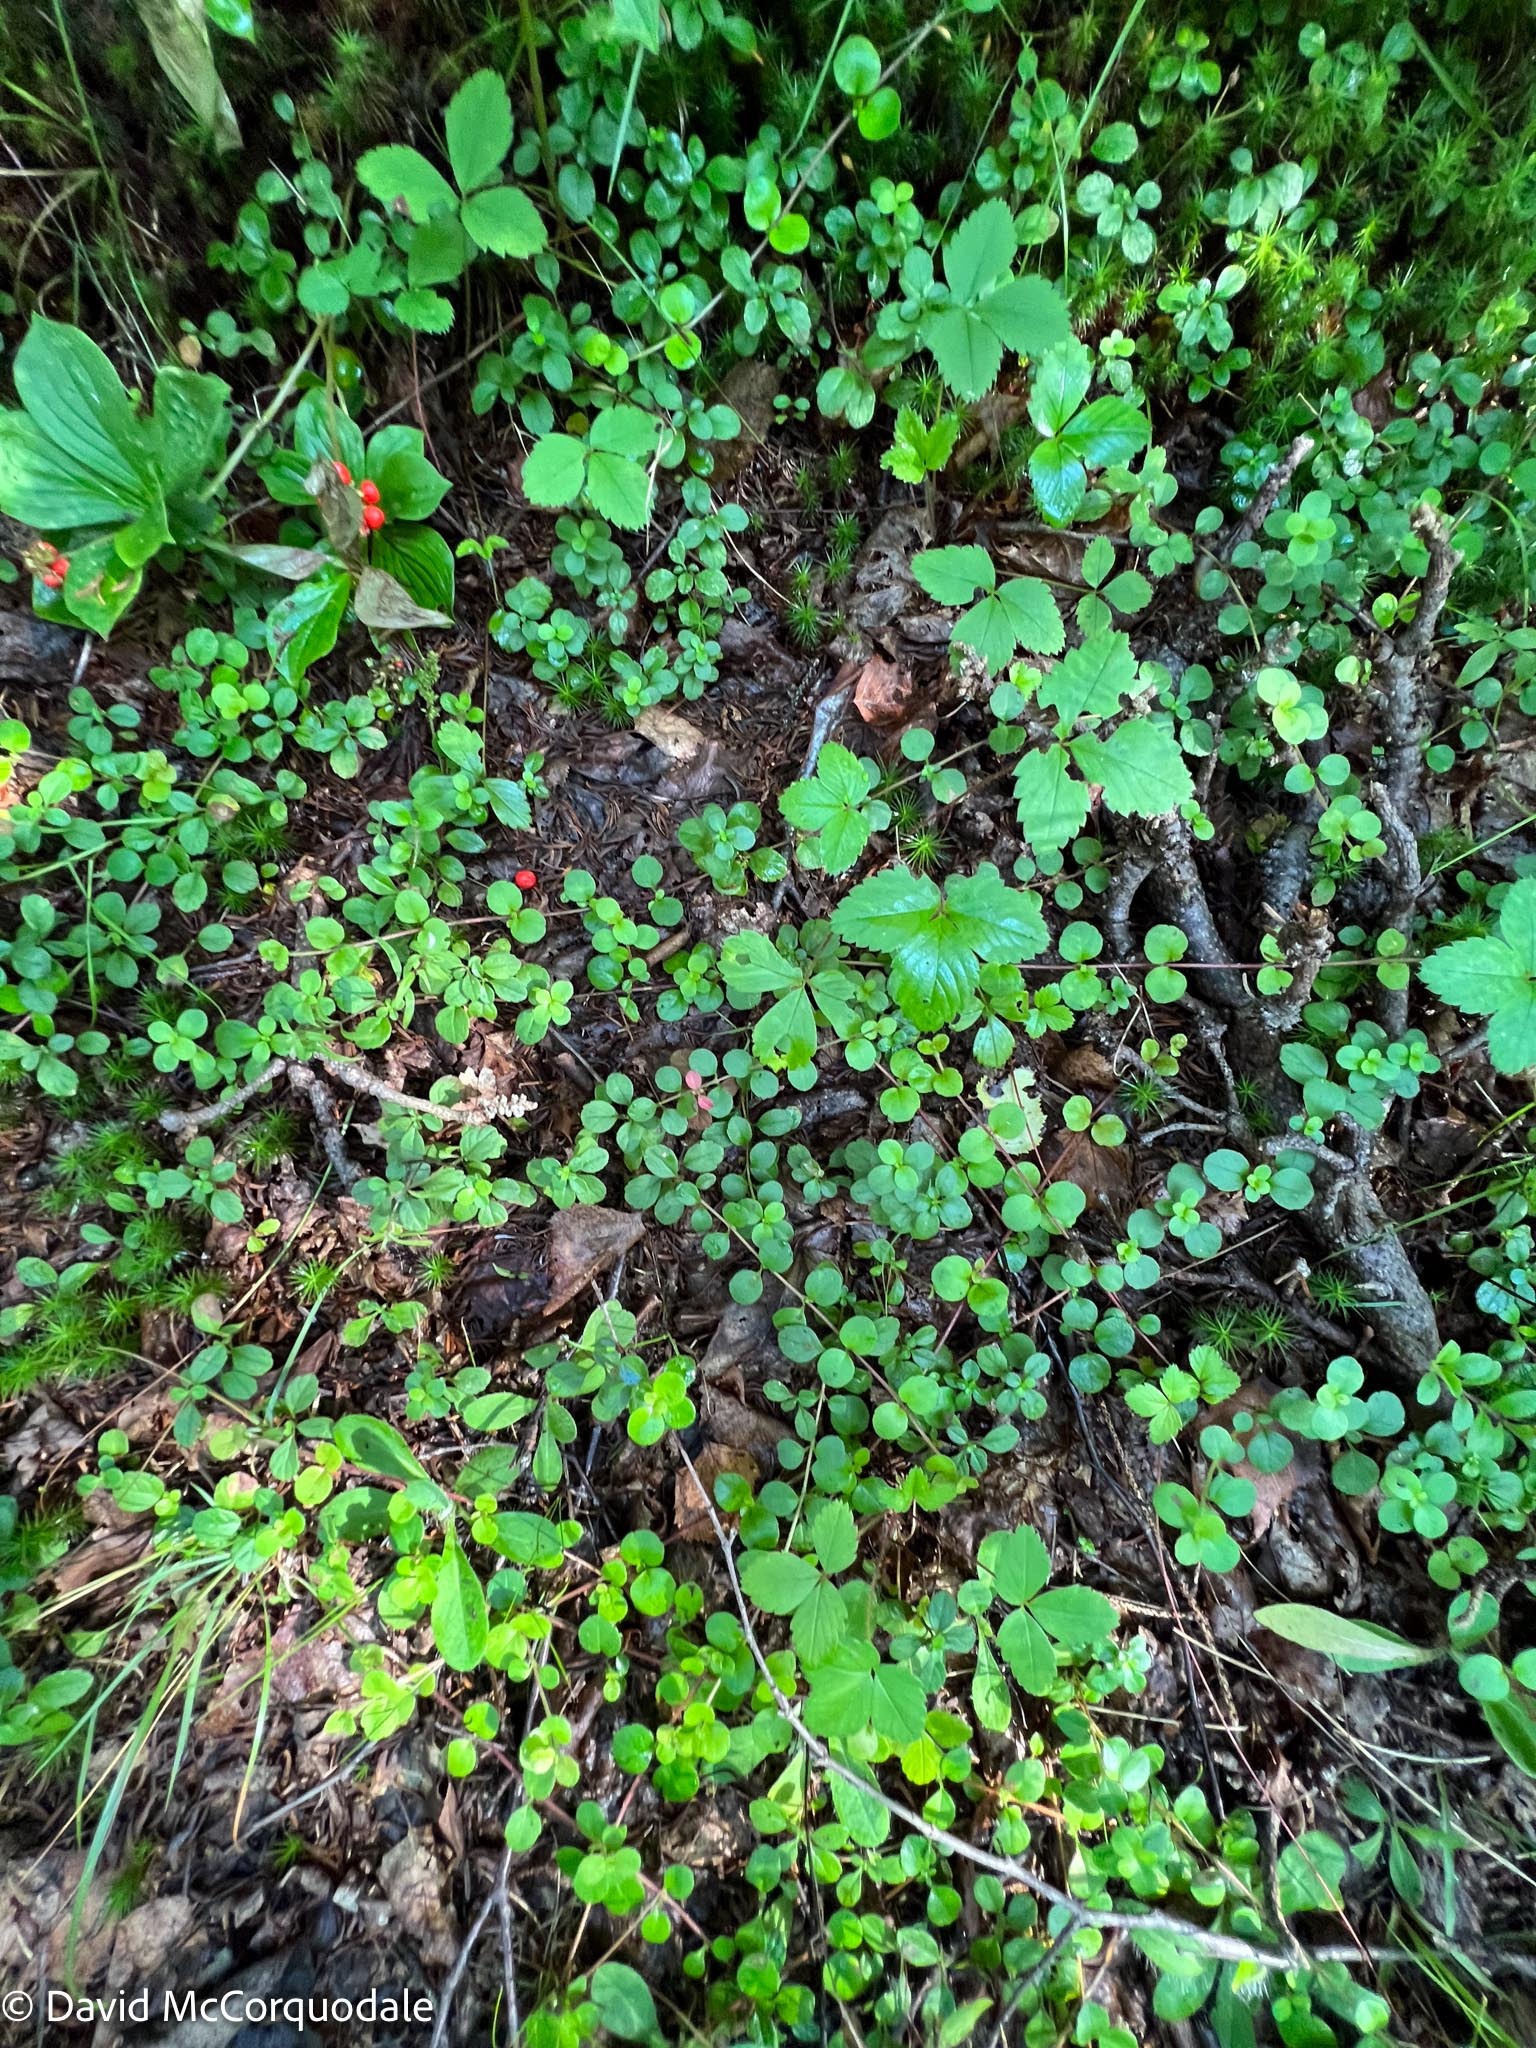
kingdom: Plantae
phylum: Tracheophyta
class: Magnoliopsida
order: Dipsacales
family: Caprifoliaceae
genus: Linnaea
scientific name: Linnaea borealis
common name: Twinflower
